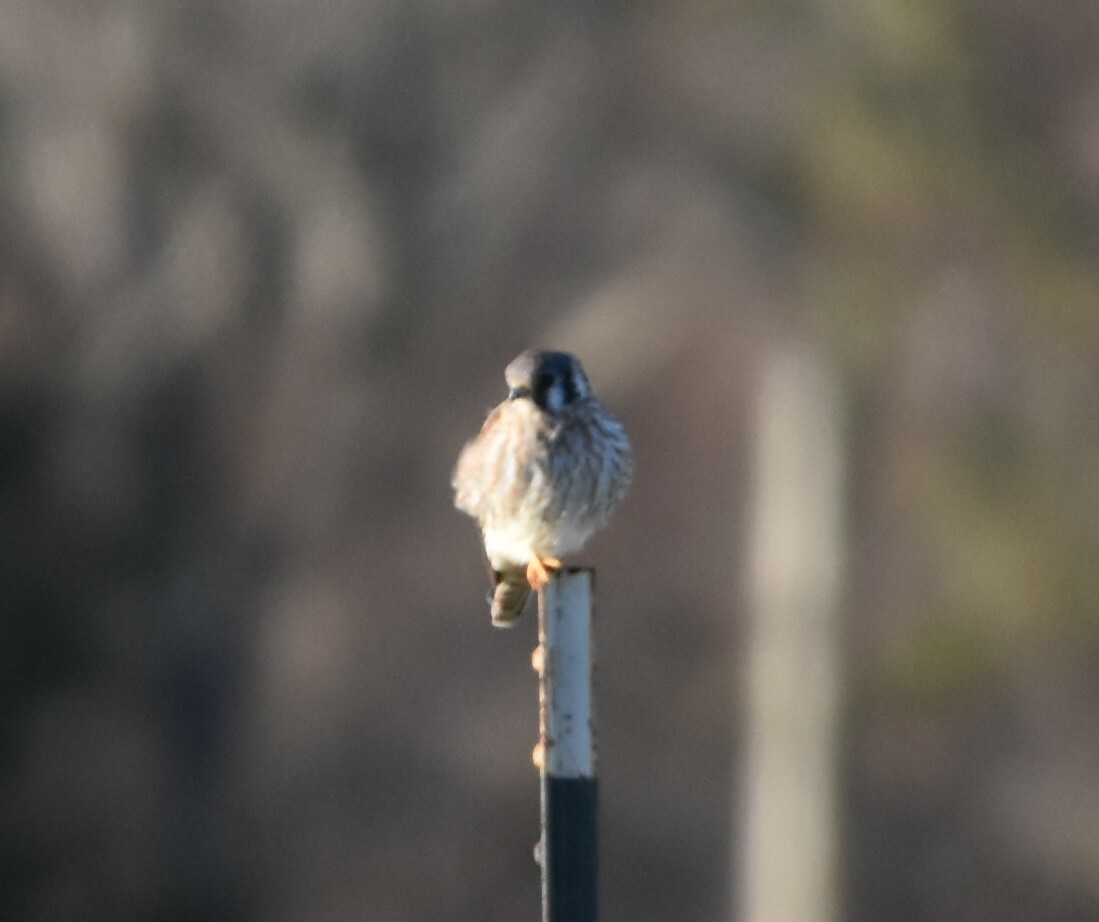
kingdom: Animalia
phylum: Chordata
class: Aves
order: Falconiformes
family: Falconidae
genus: Falco
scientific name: Falco sparverius
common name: American kestrel
